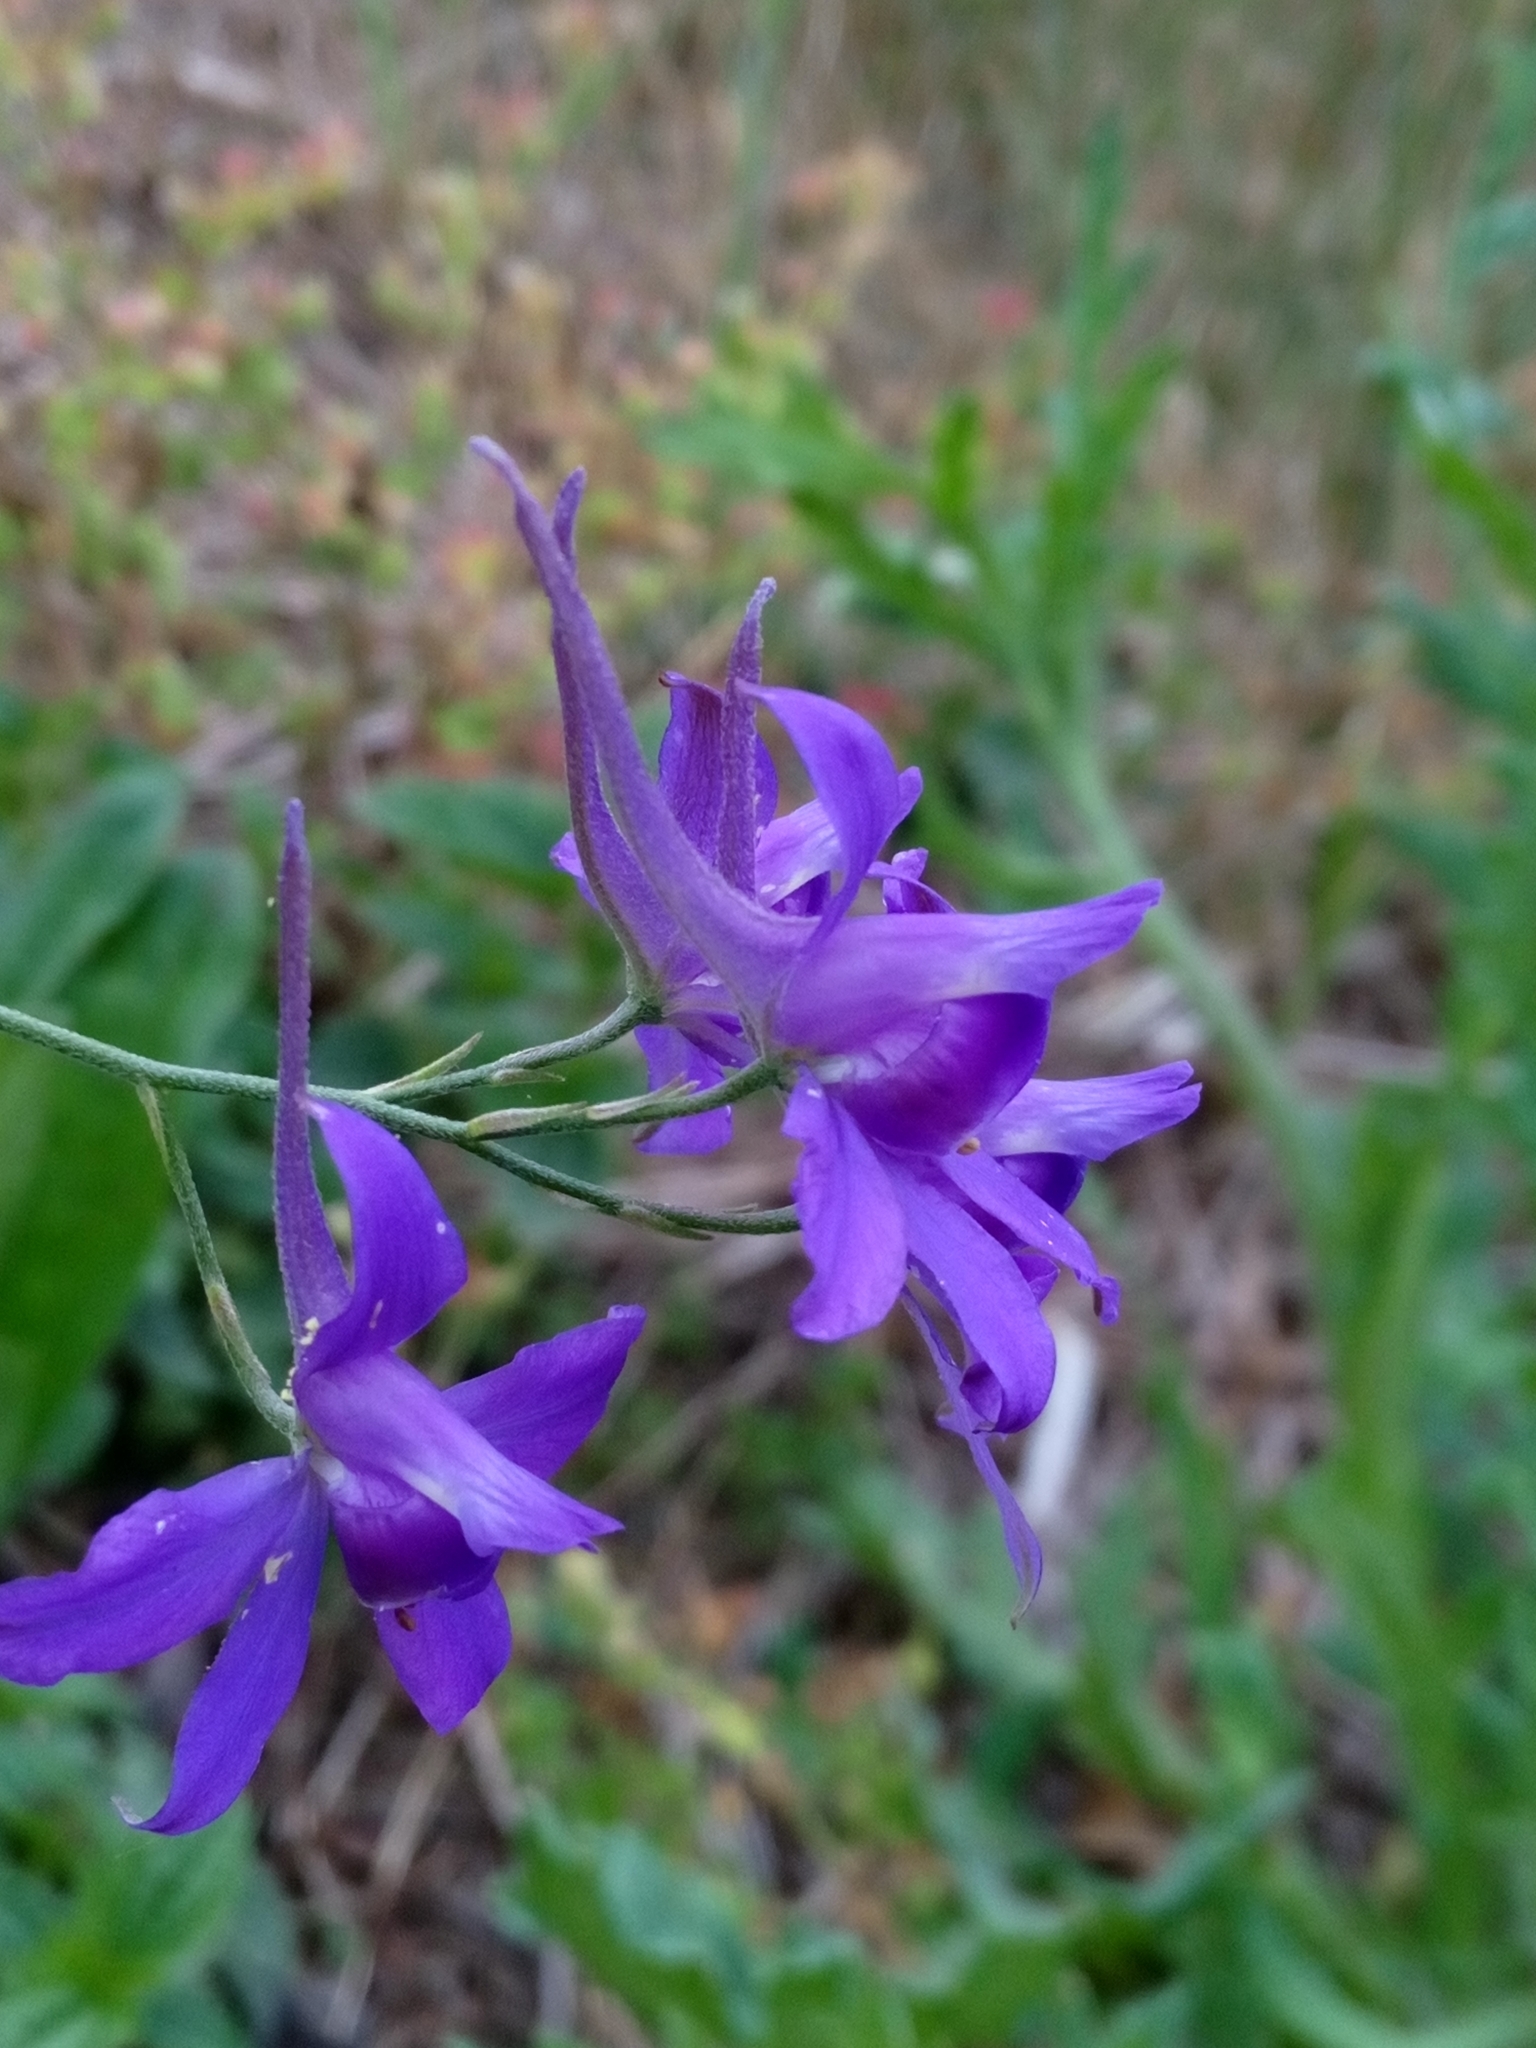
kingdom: Plantae
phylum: Tracheophyta
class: Magnoliopsida
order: Ranunculales
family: Ranunculaceae
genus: Delphinium
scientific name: Delphinium consolida
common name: Branching larkspur
